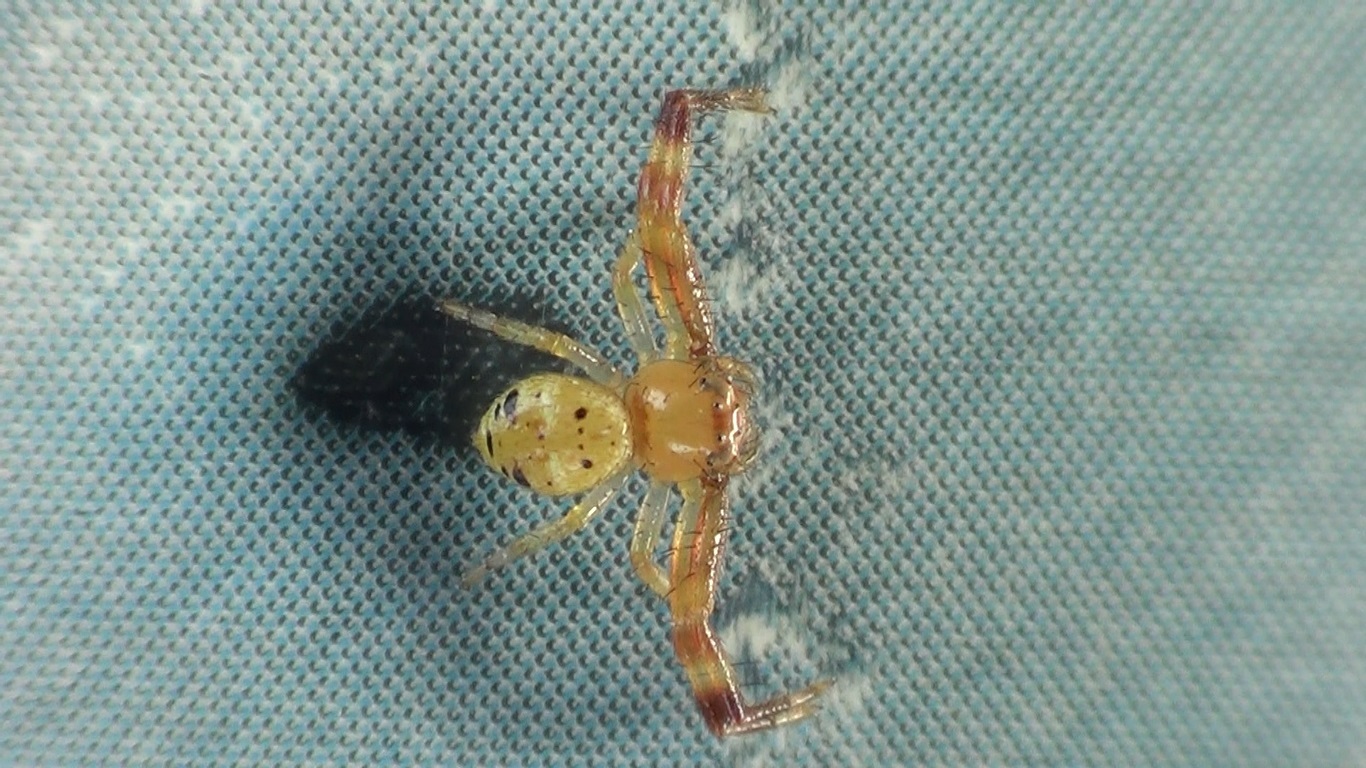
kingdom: Animalia
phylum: Arthropoda
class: Arachnida
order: Araneae
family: Thomisidae
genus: Synema
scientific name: Synema globosum
